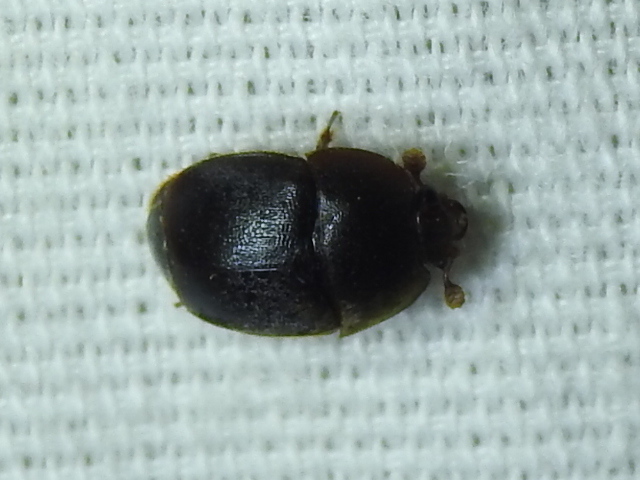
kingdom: Animalia
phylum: Arthropoda
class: Insecta
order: Coleoptera
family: Nitidulidae
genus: Aethina
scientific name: Aethina tumida
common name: Small hive beetle
